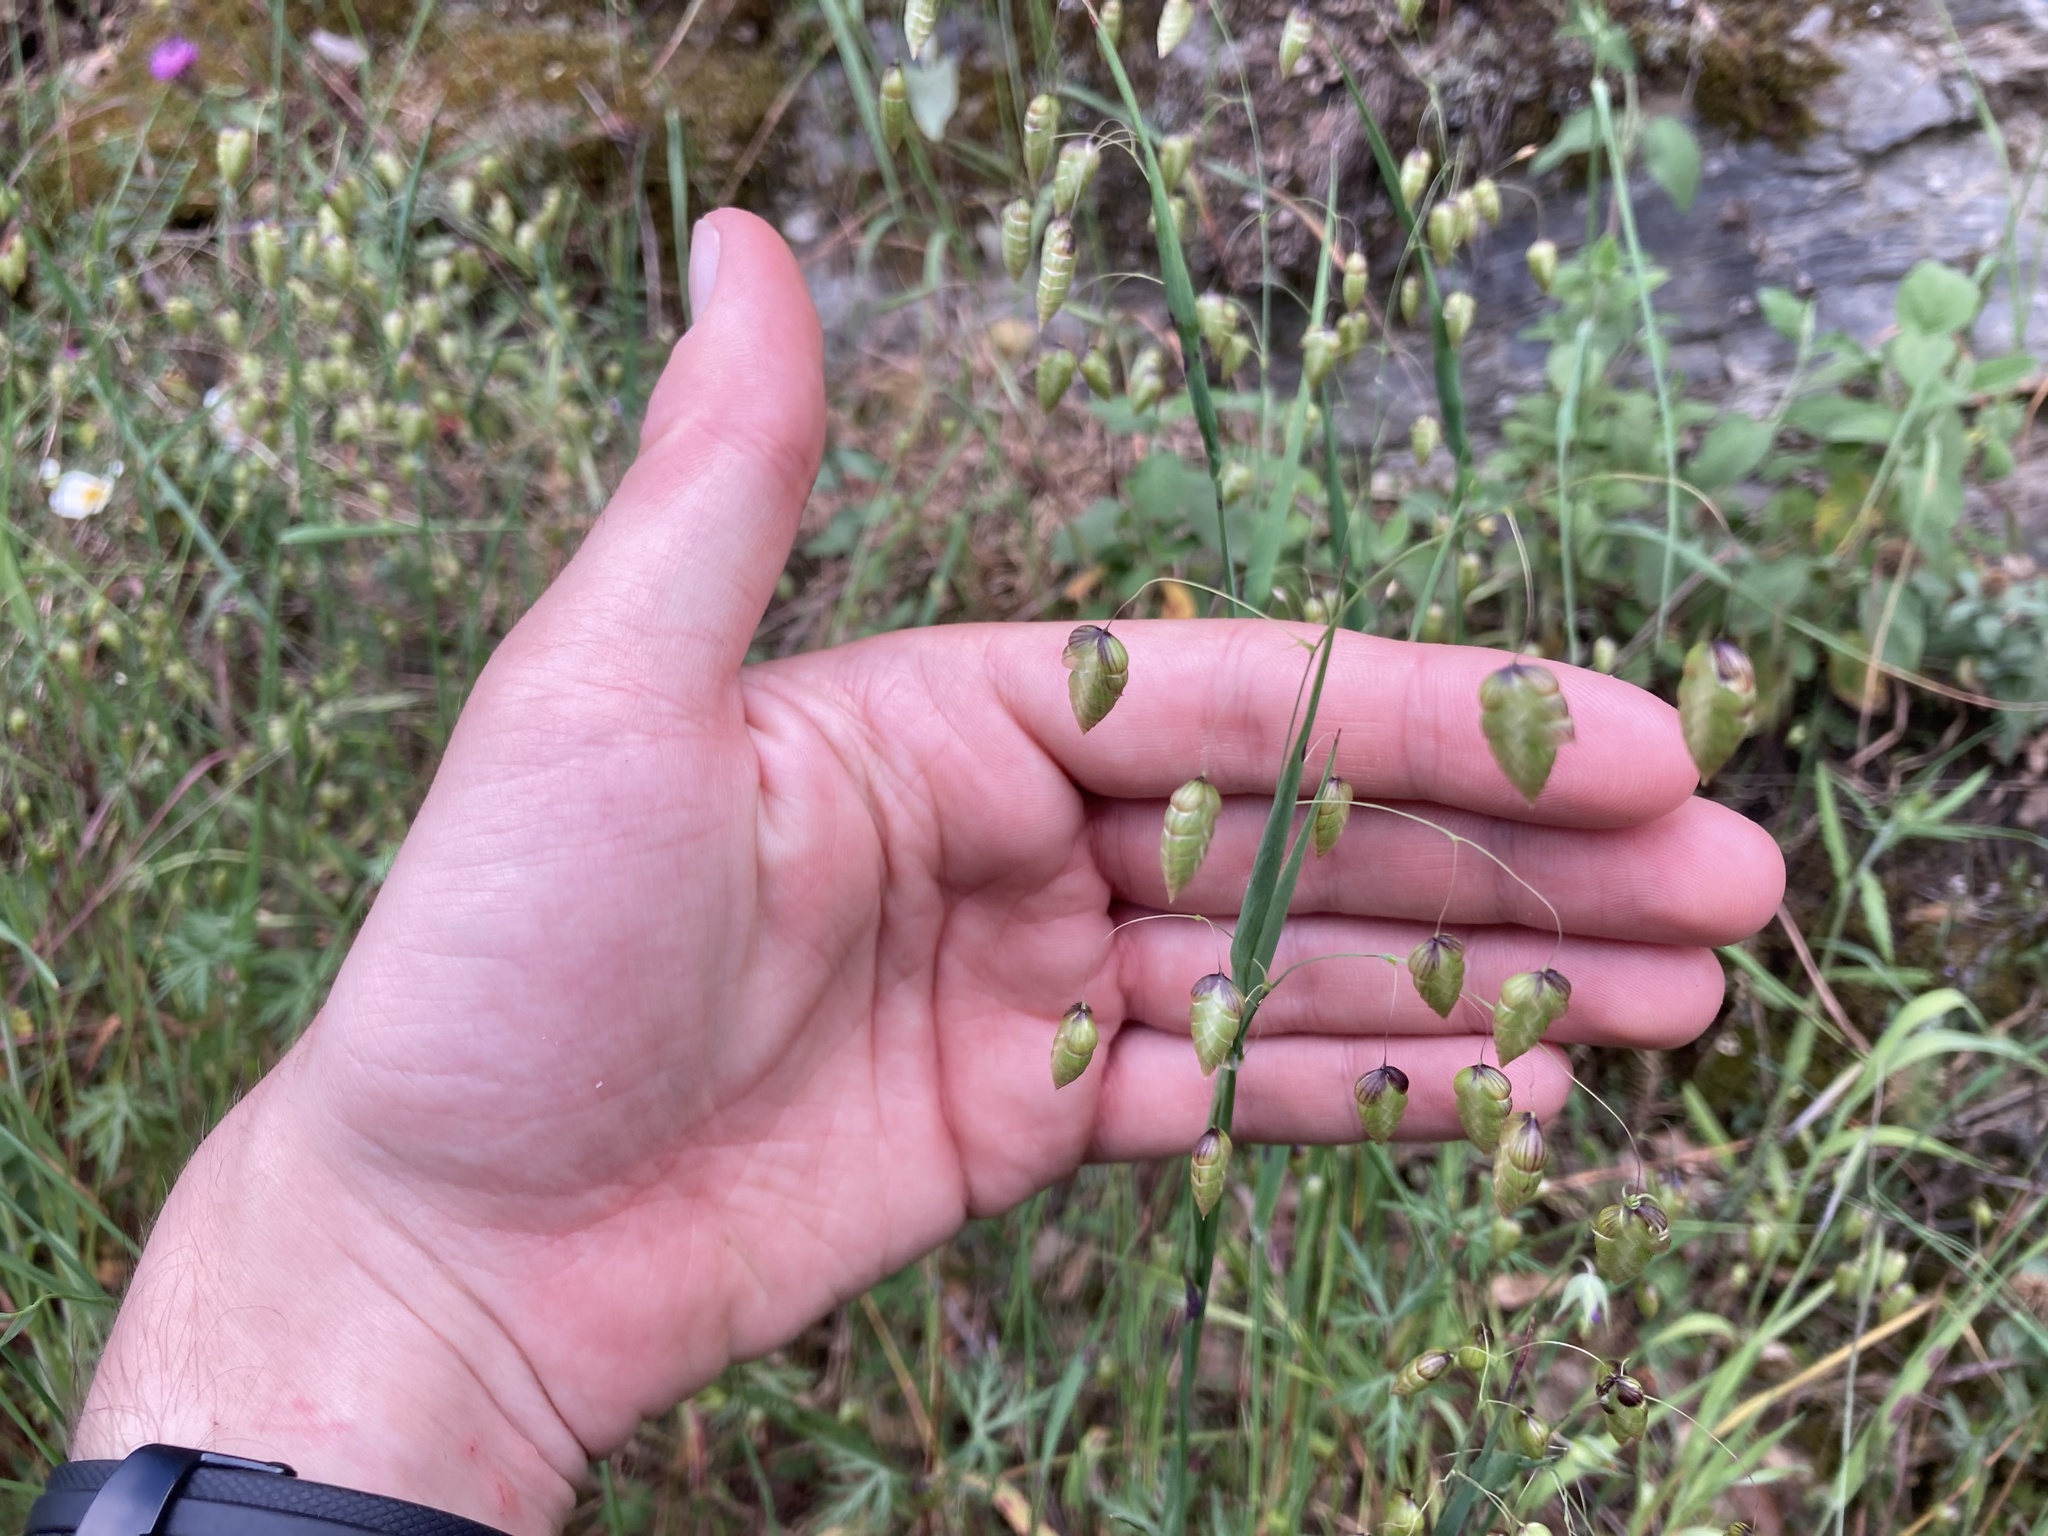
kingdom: Plantae
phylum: Tracheophyta
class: Liliopsida
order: Poales
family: Poaceae
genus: Briza
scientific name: Briza maxima
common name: Big quakinggrass
